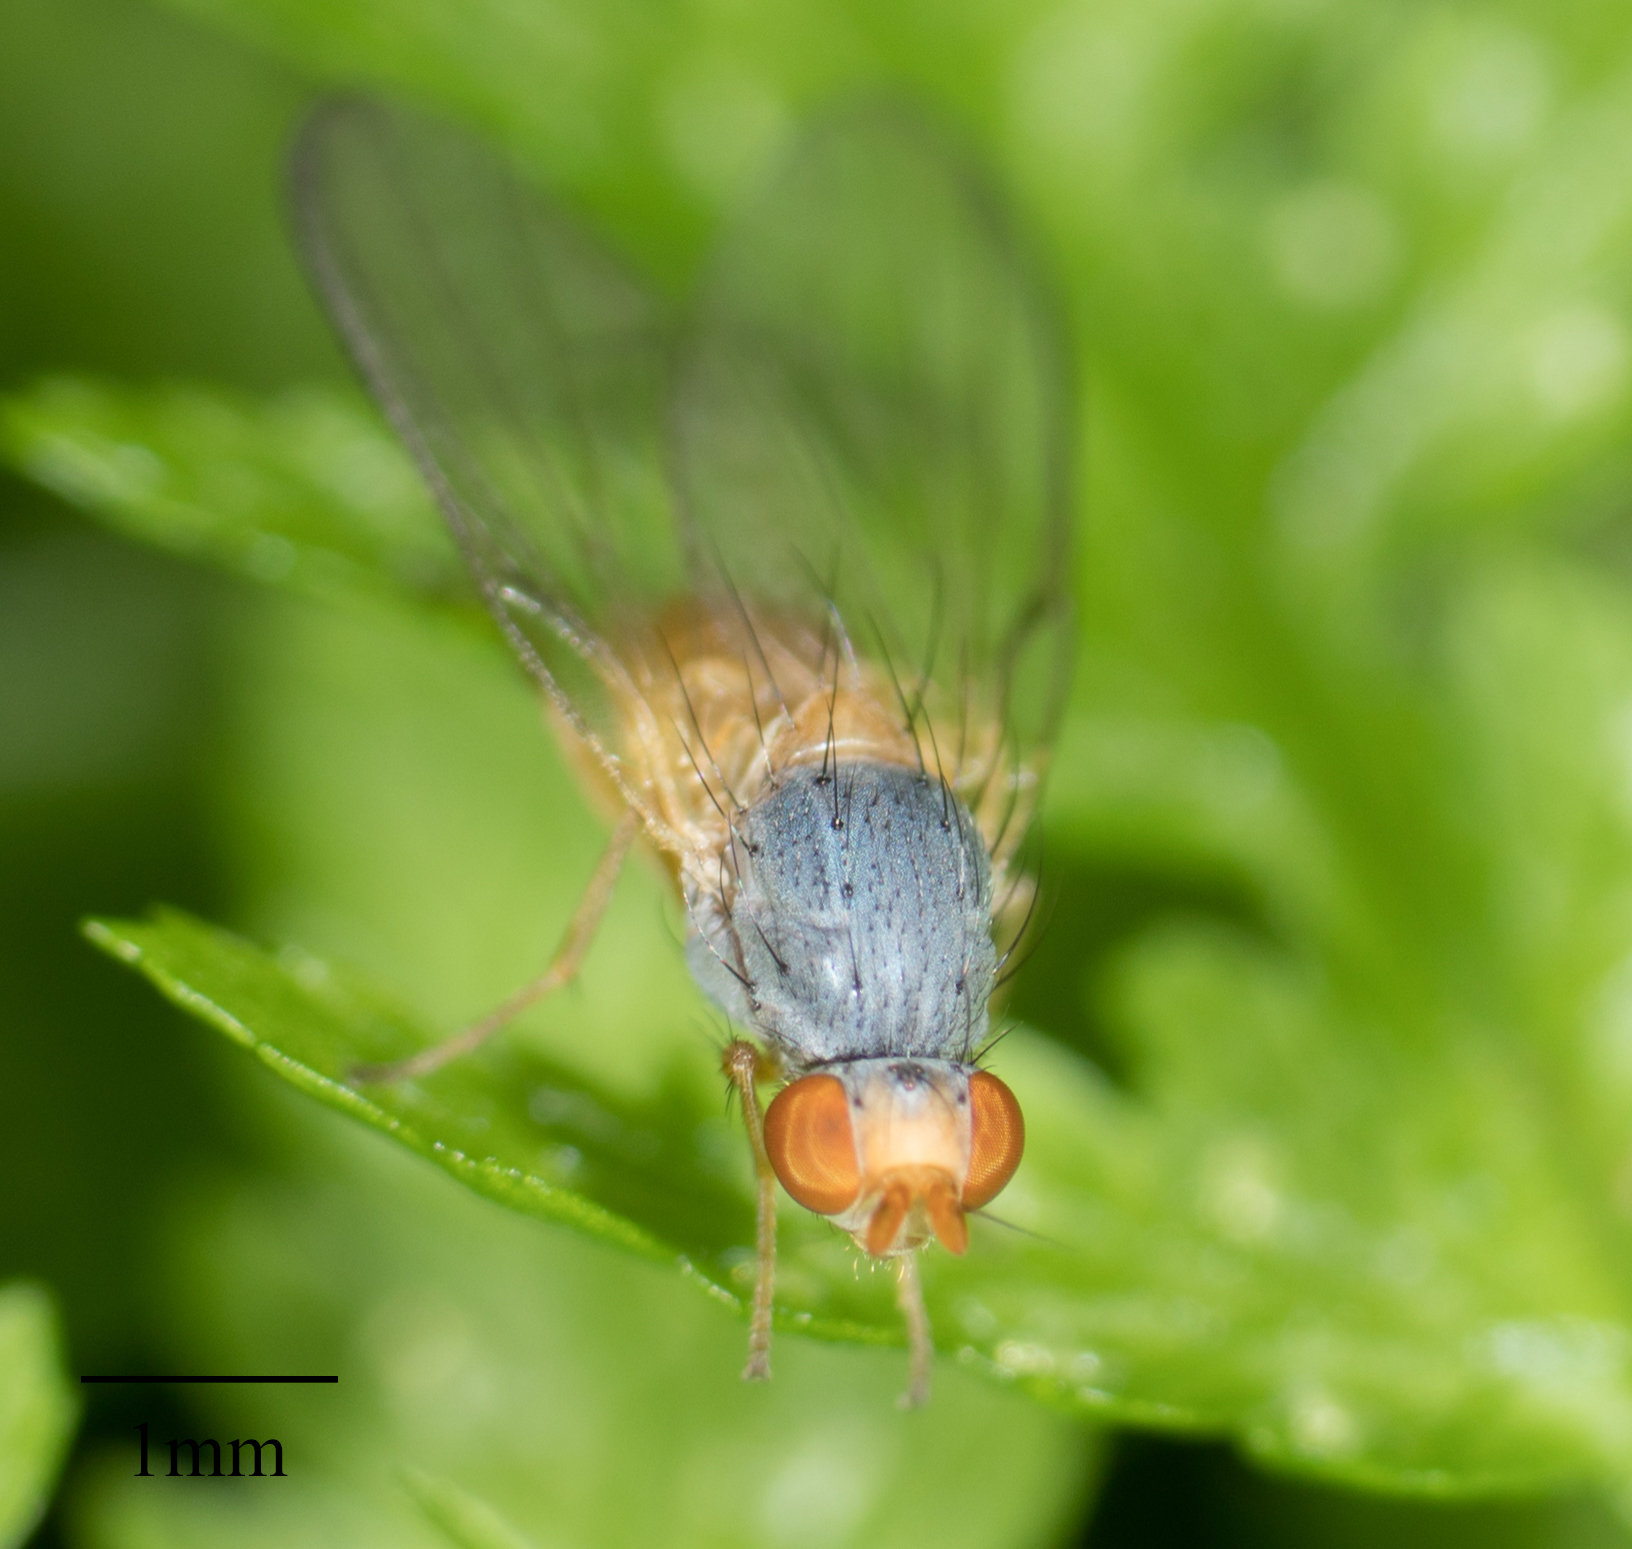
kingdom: Animalia
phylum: Arthropoda
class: Insecta
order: Diptera
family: Pallopteridae
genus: Palloptera
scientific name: Palloptera claripennis
